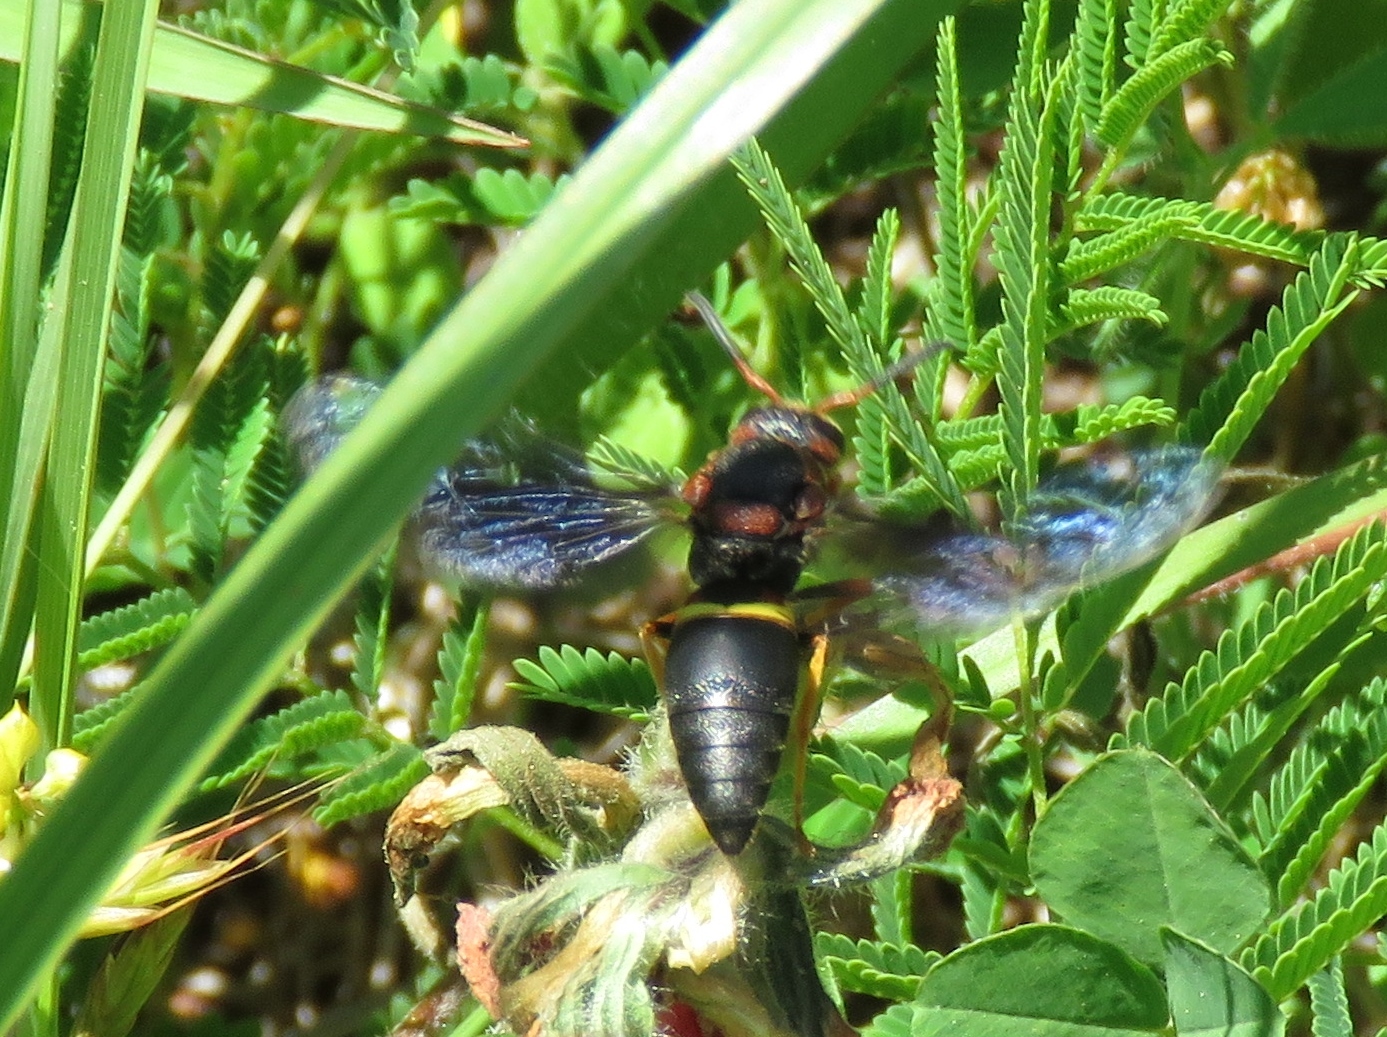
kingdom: Animalia
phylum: Arthropoda
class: Insecta
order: Hymenoptera
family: Eumenidae
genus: Euodynerus
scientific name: Euodynerus crypticus
